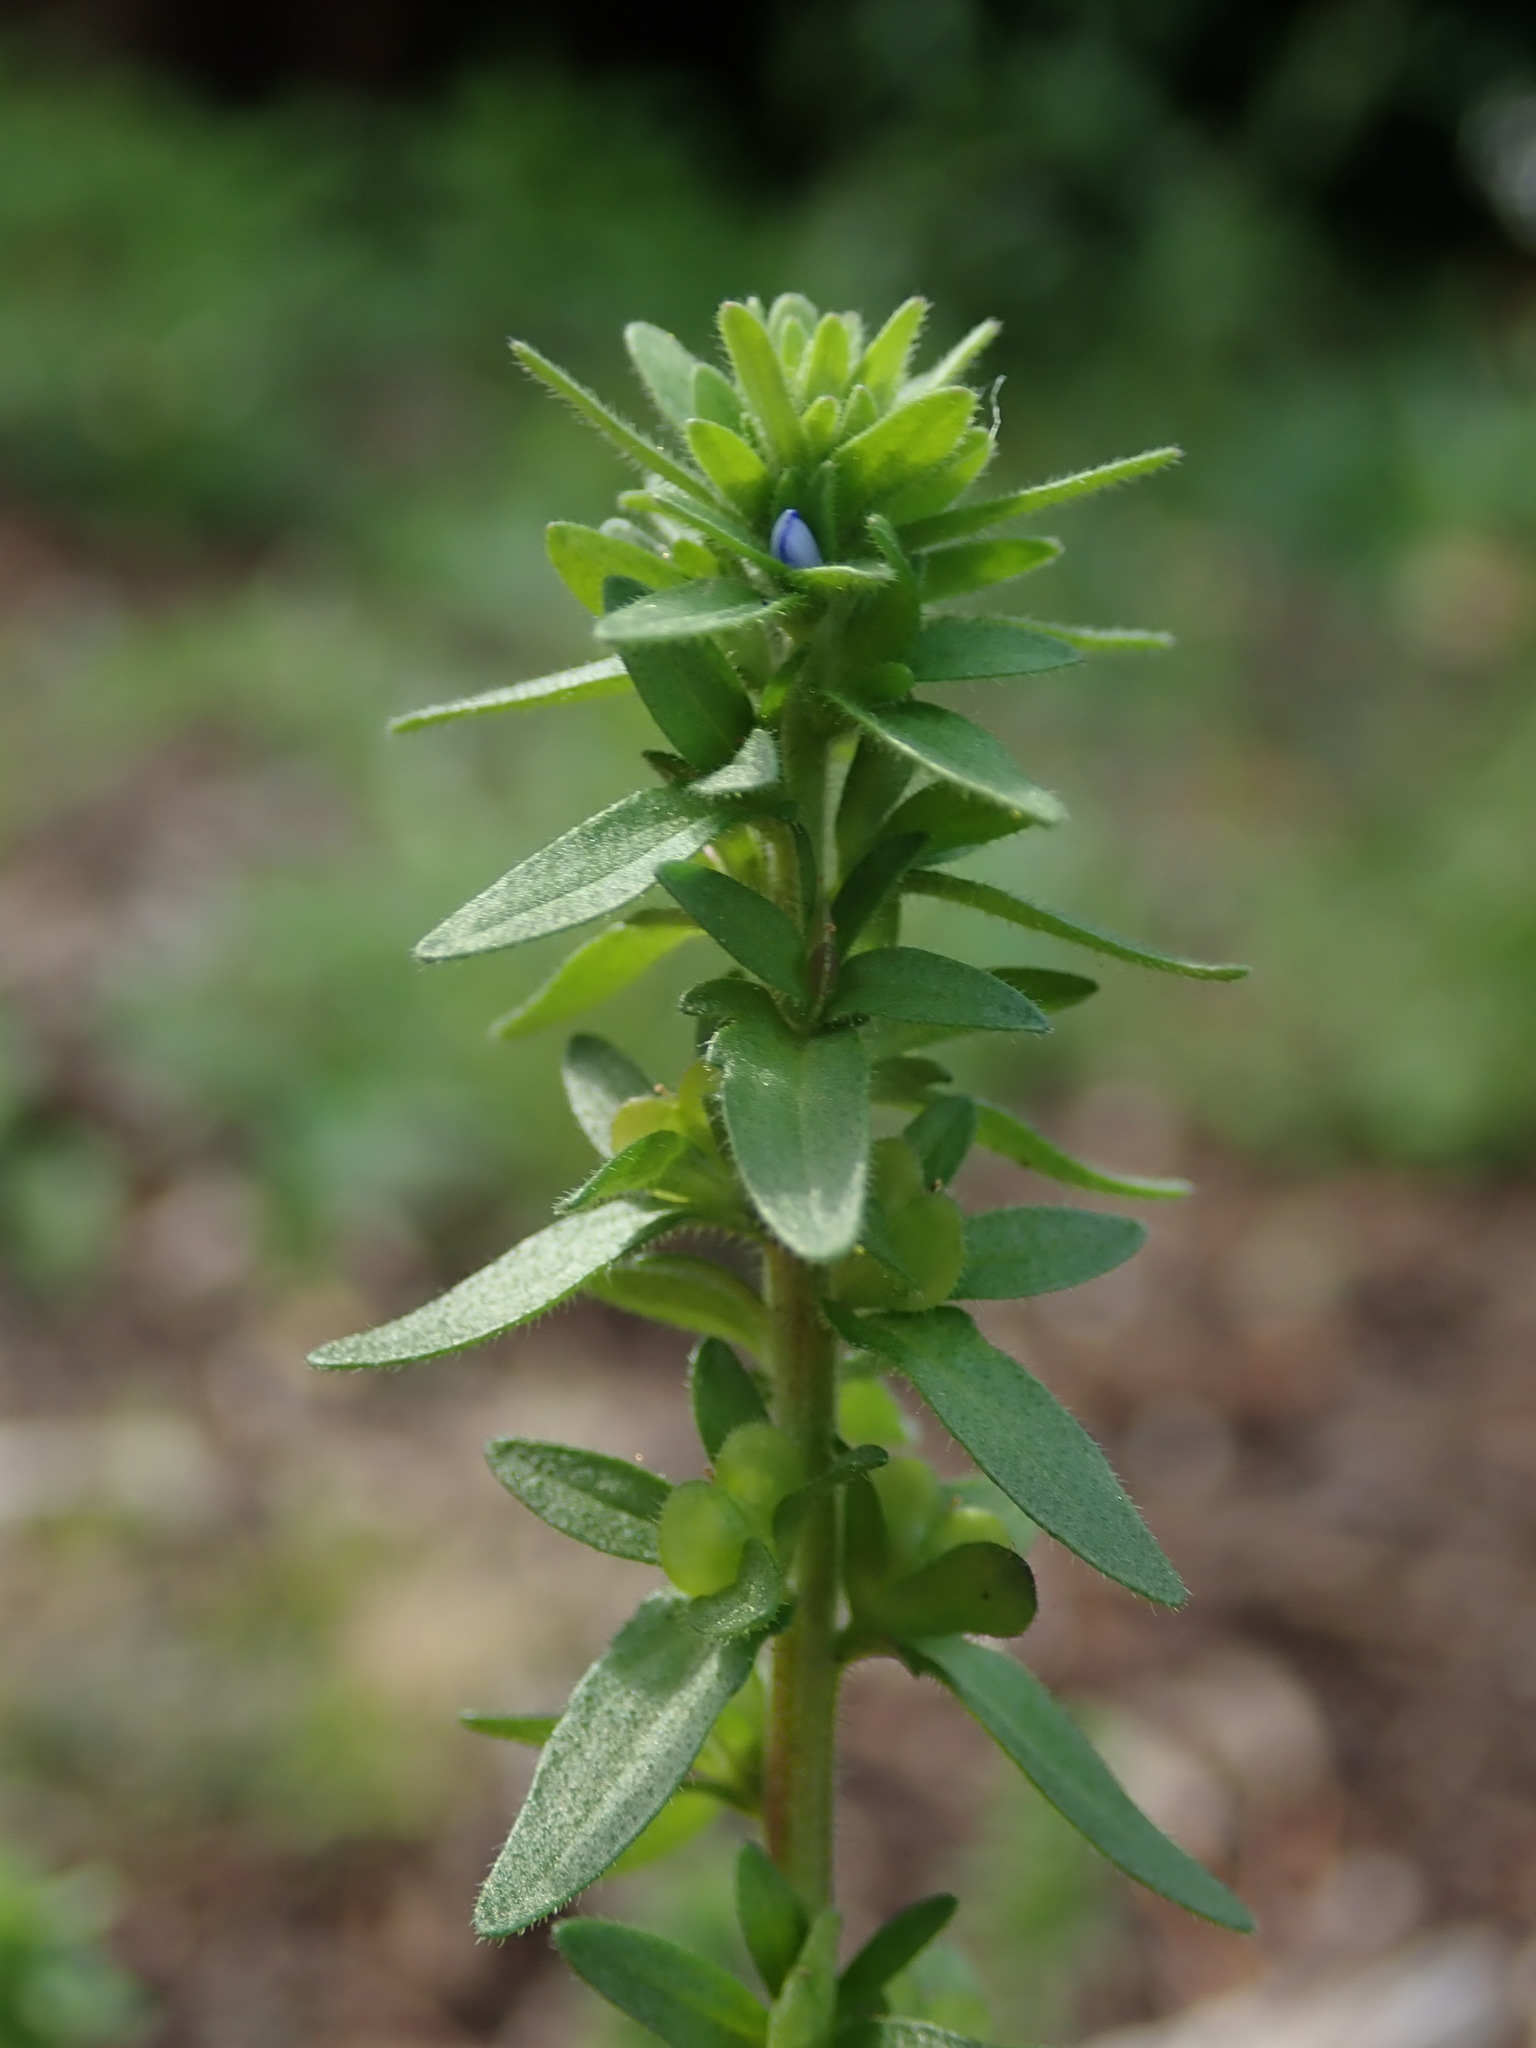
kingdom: Plantae
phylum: Tracheophyta
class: Magnoliopsida
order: Lamiales
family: Plantaginaceae
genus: Veronica
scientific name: Veronica arvensis
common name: Corn speedwell
